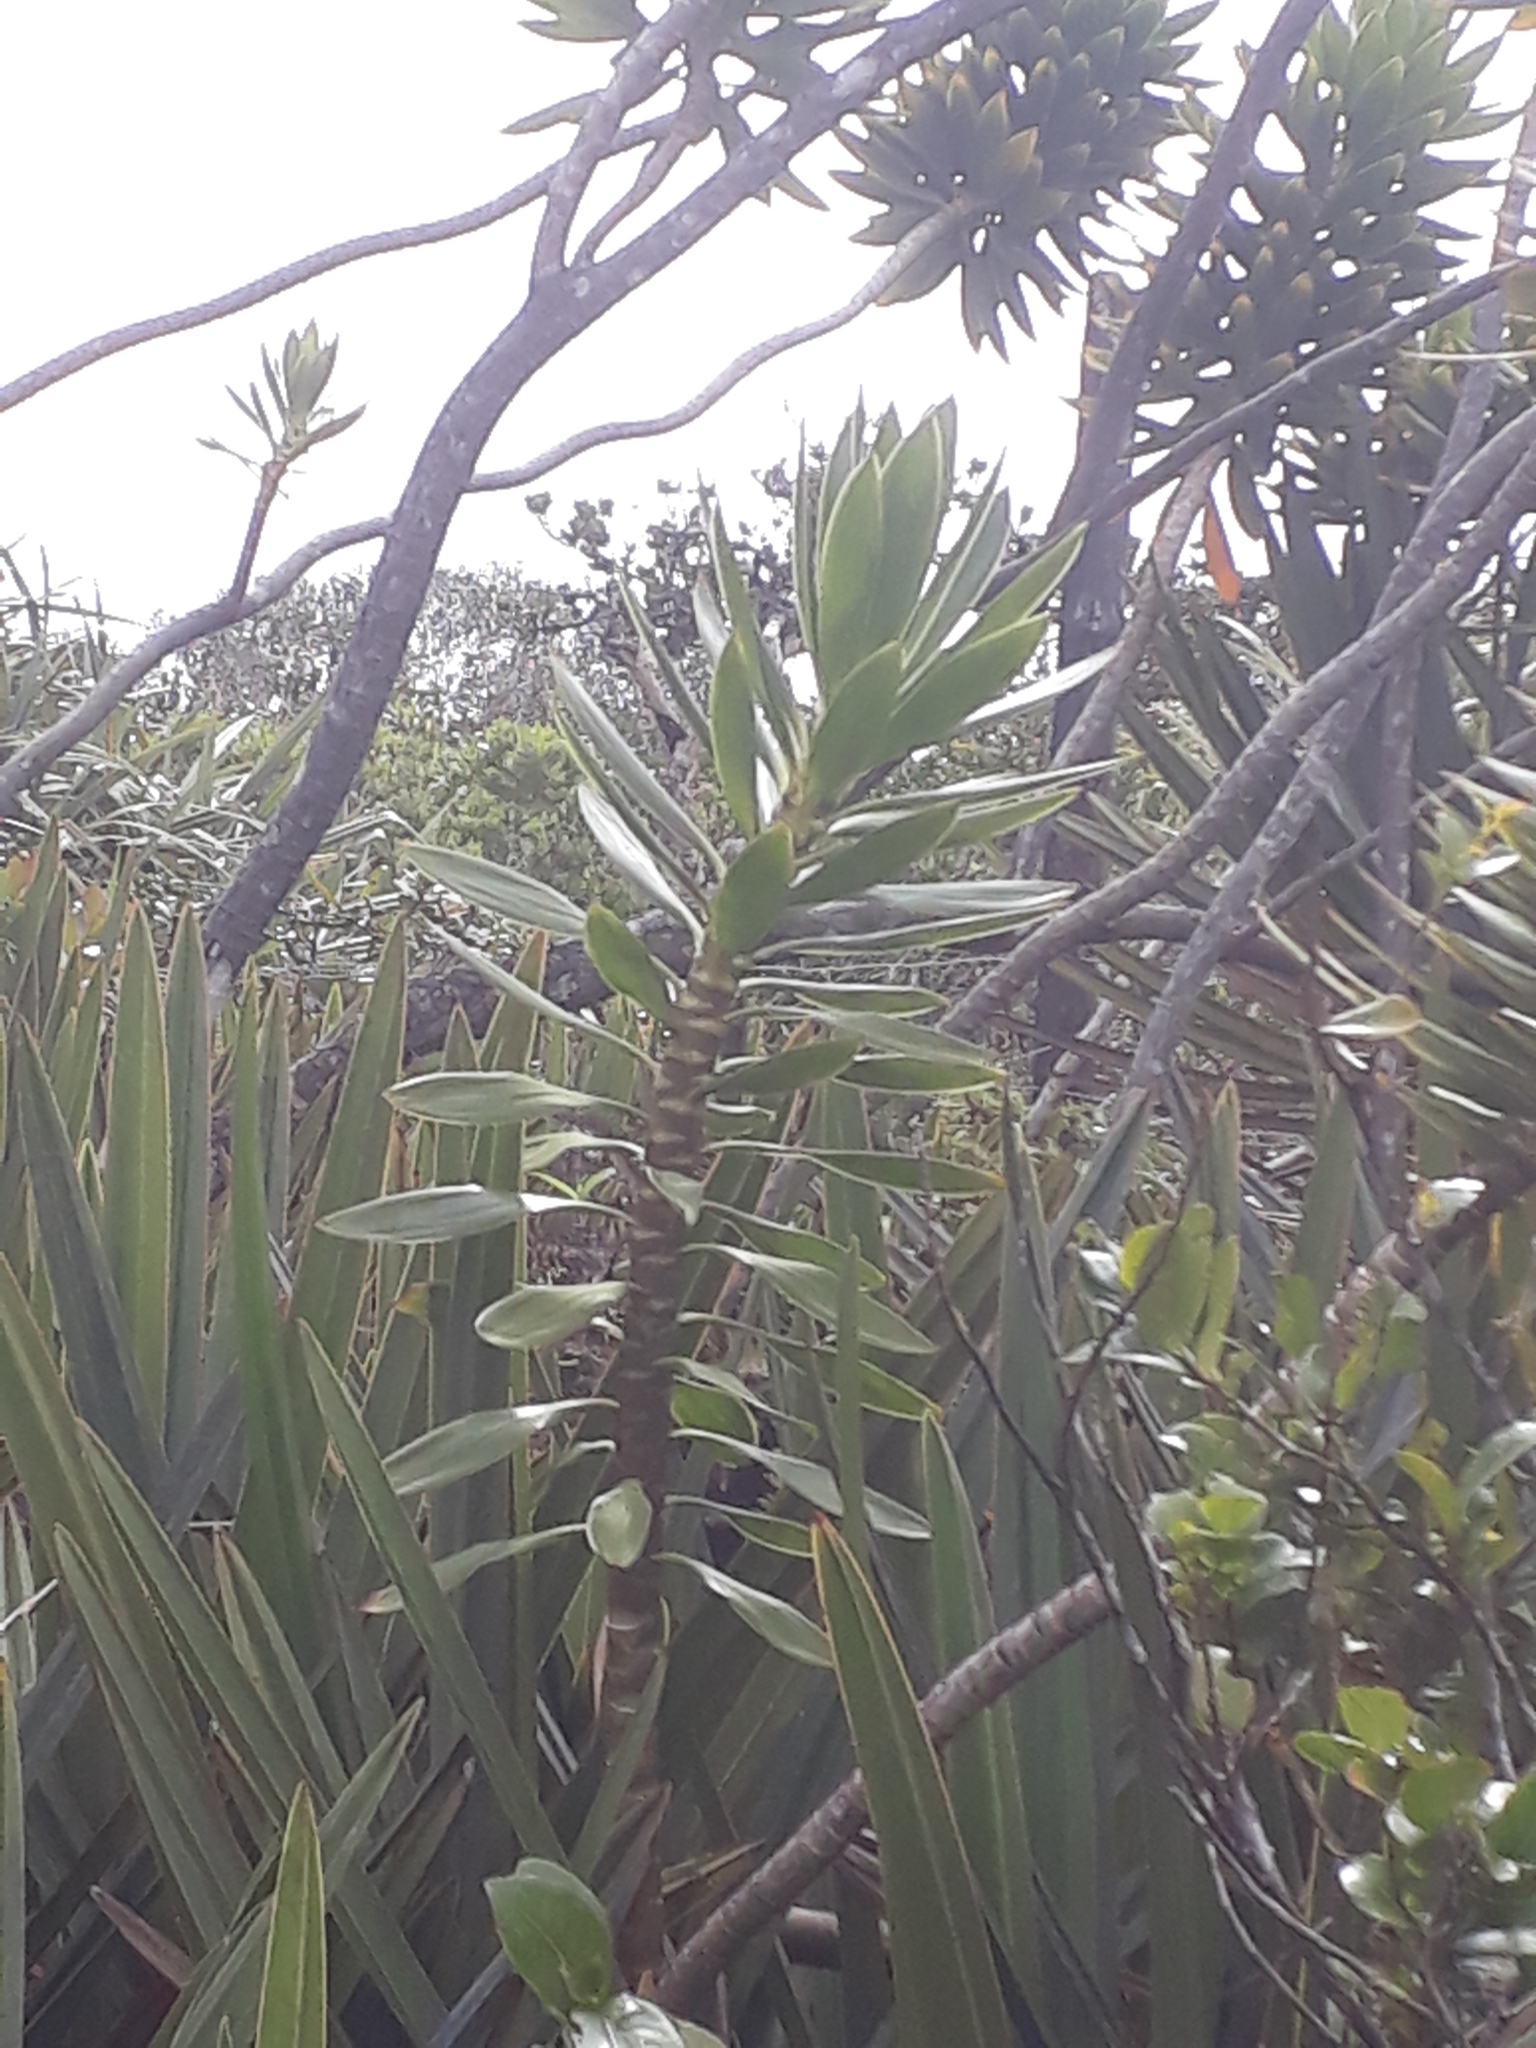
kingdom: Plantae
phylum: Tracheophyta
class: Liliopsida
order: Asparagales
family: Asparagaceae
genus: Dracaena
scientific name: Dracaena reflexa
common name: Song-of-india
